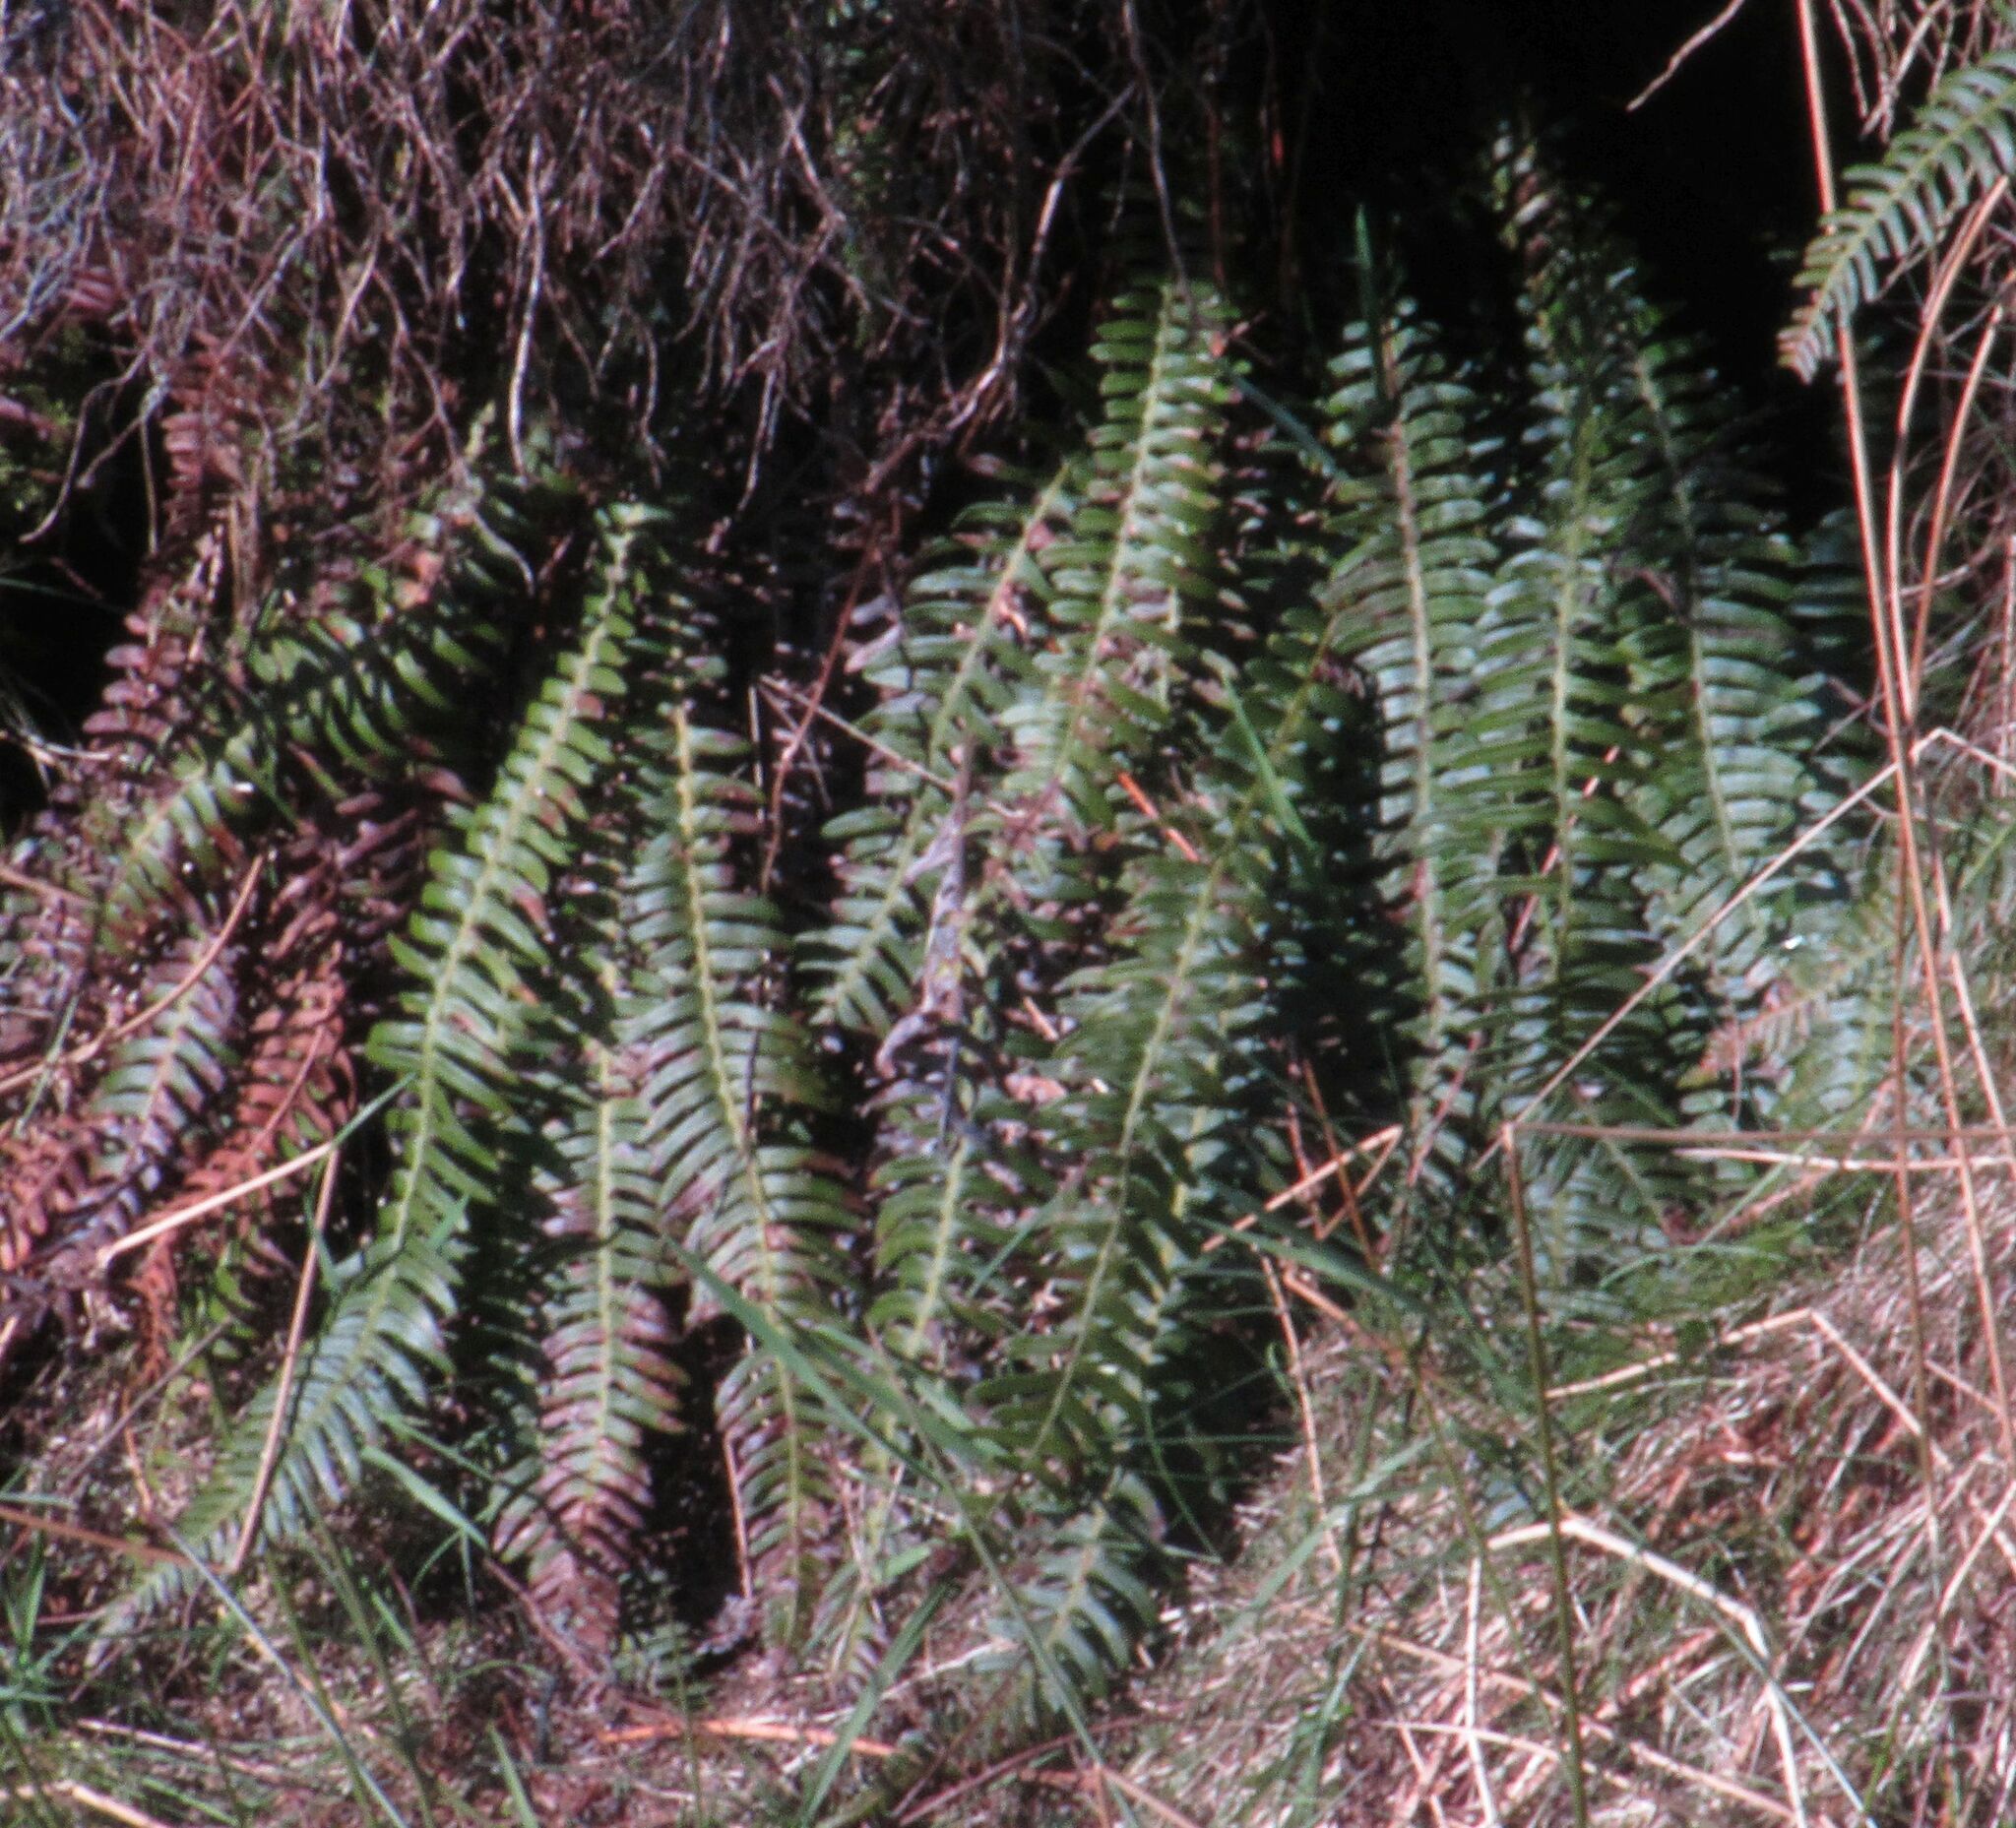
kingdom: Plantae
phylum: Tracheophyta
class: Polypodiopsida
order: Polypodiales
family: Blechnaceae
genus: Struthiopteris
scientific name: Struthiopteris spicant
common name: Deer fern
